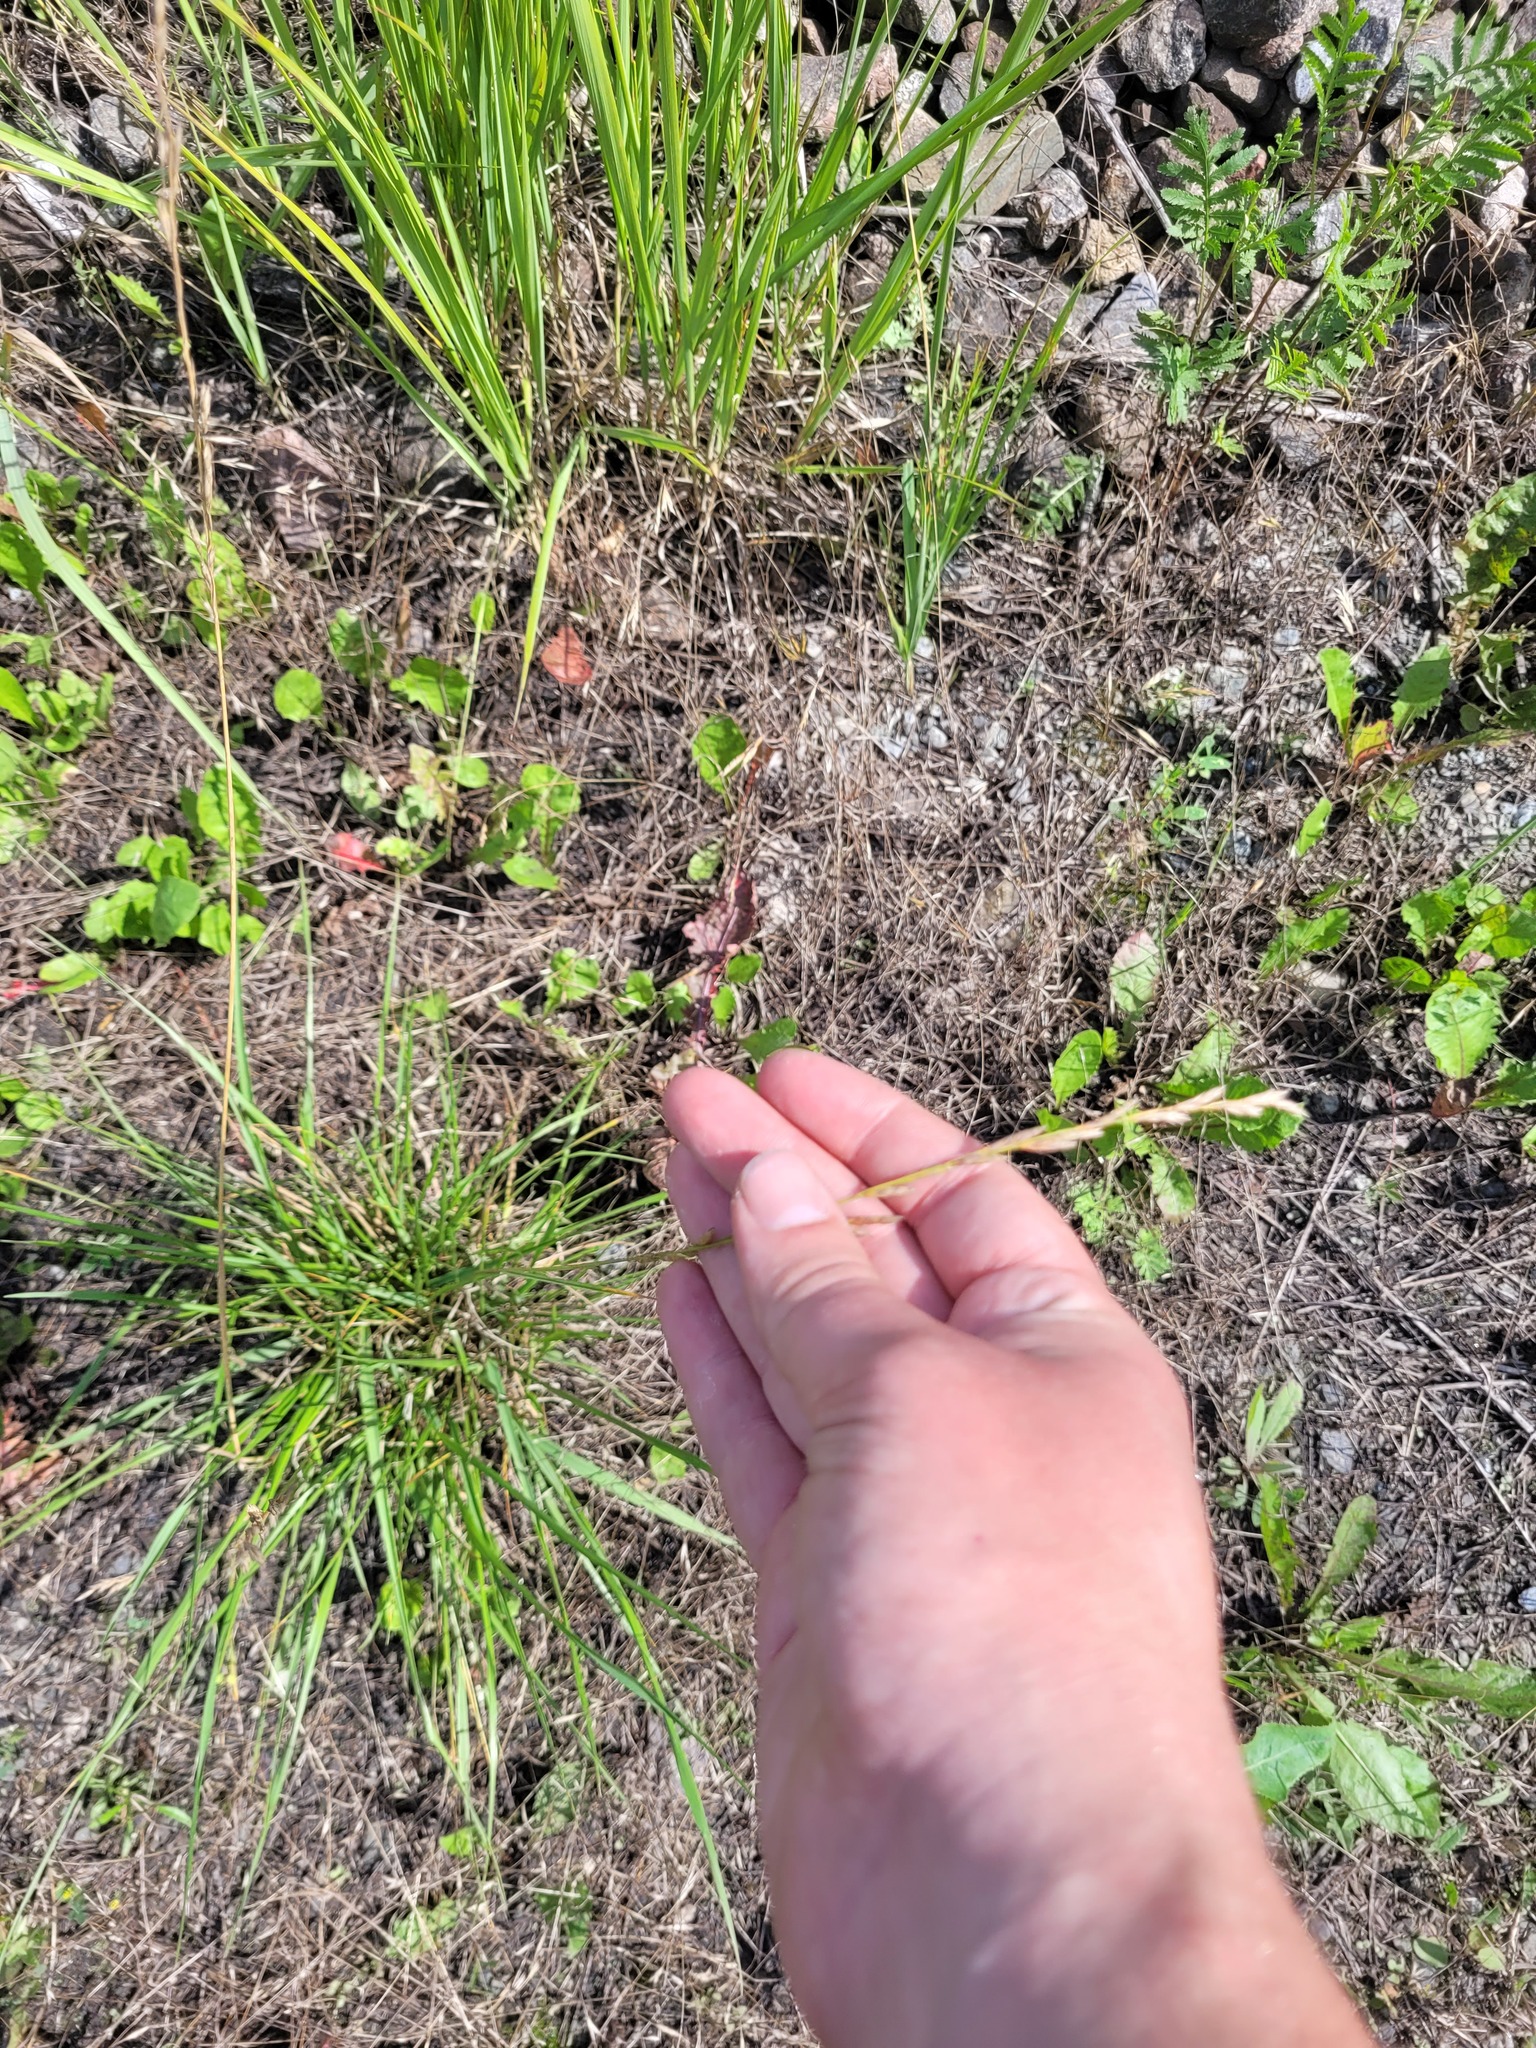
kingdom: Plantae
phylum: Tracheophyta
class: Liliopsida
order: Poales
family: Poaceae
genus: Lolium
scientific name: Lolium pratense
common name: Dover grass
